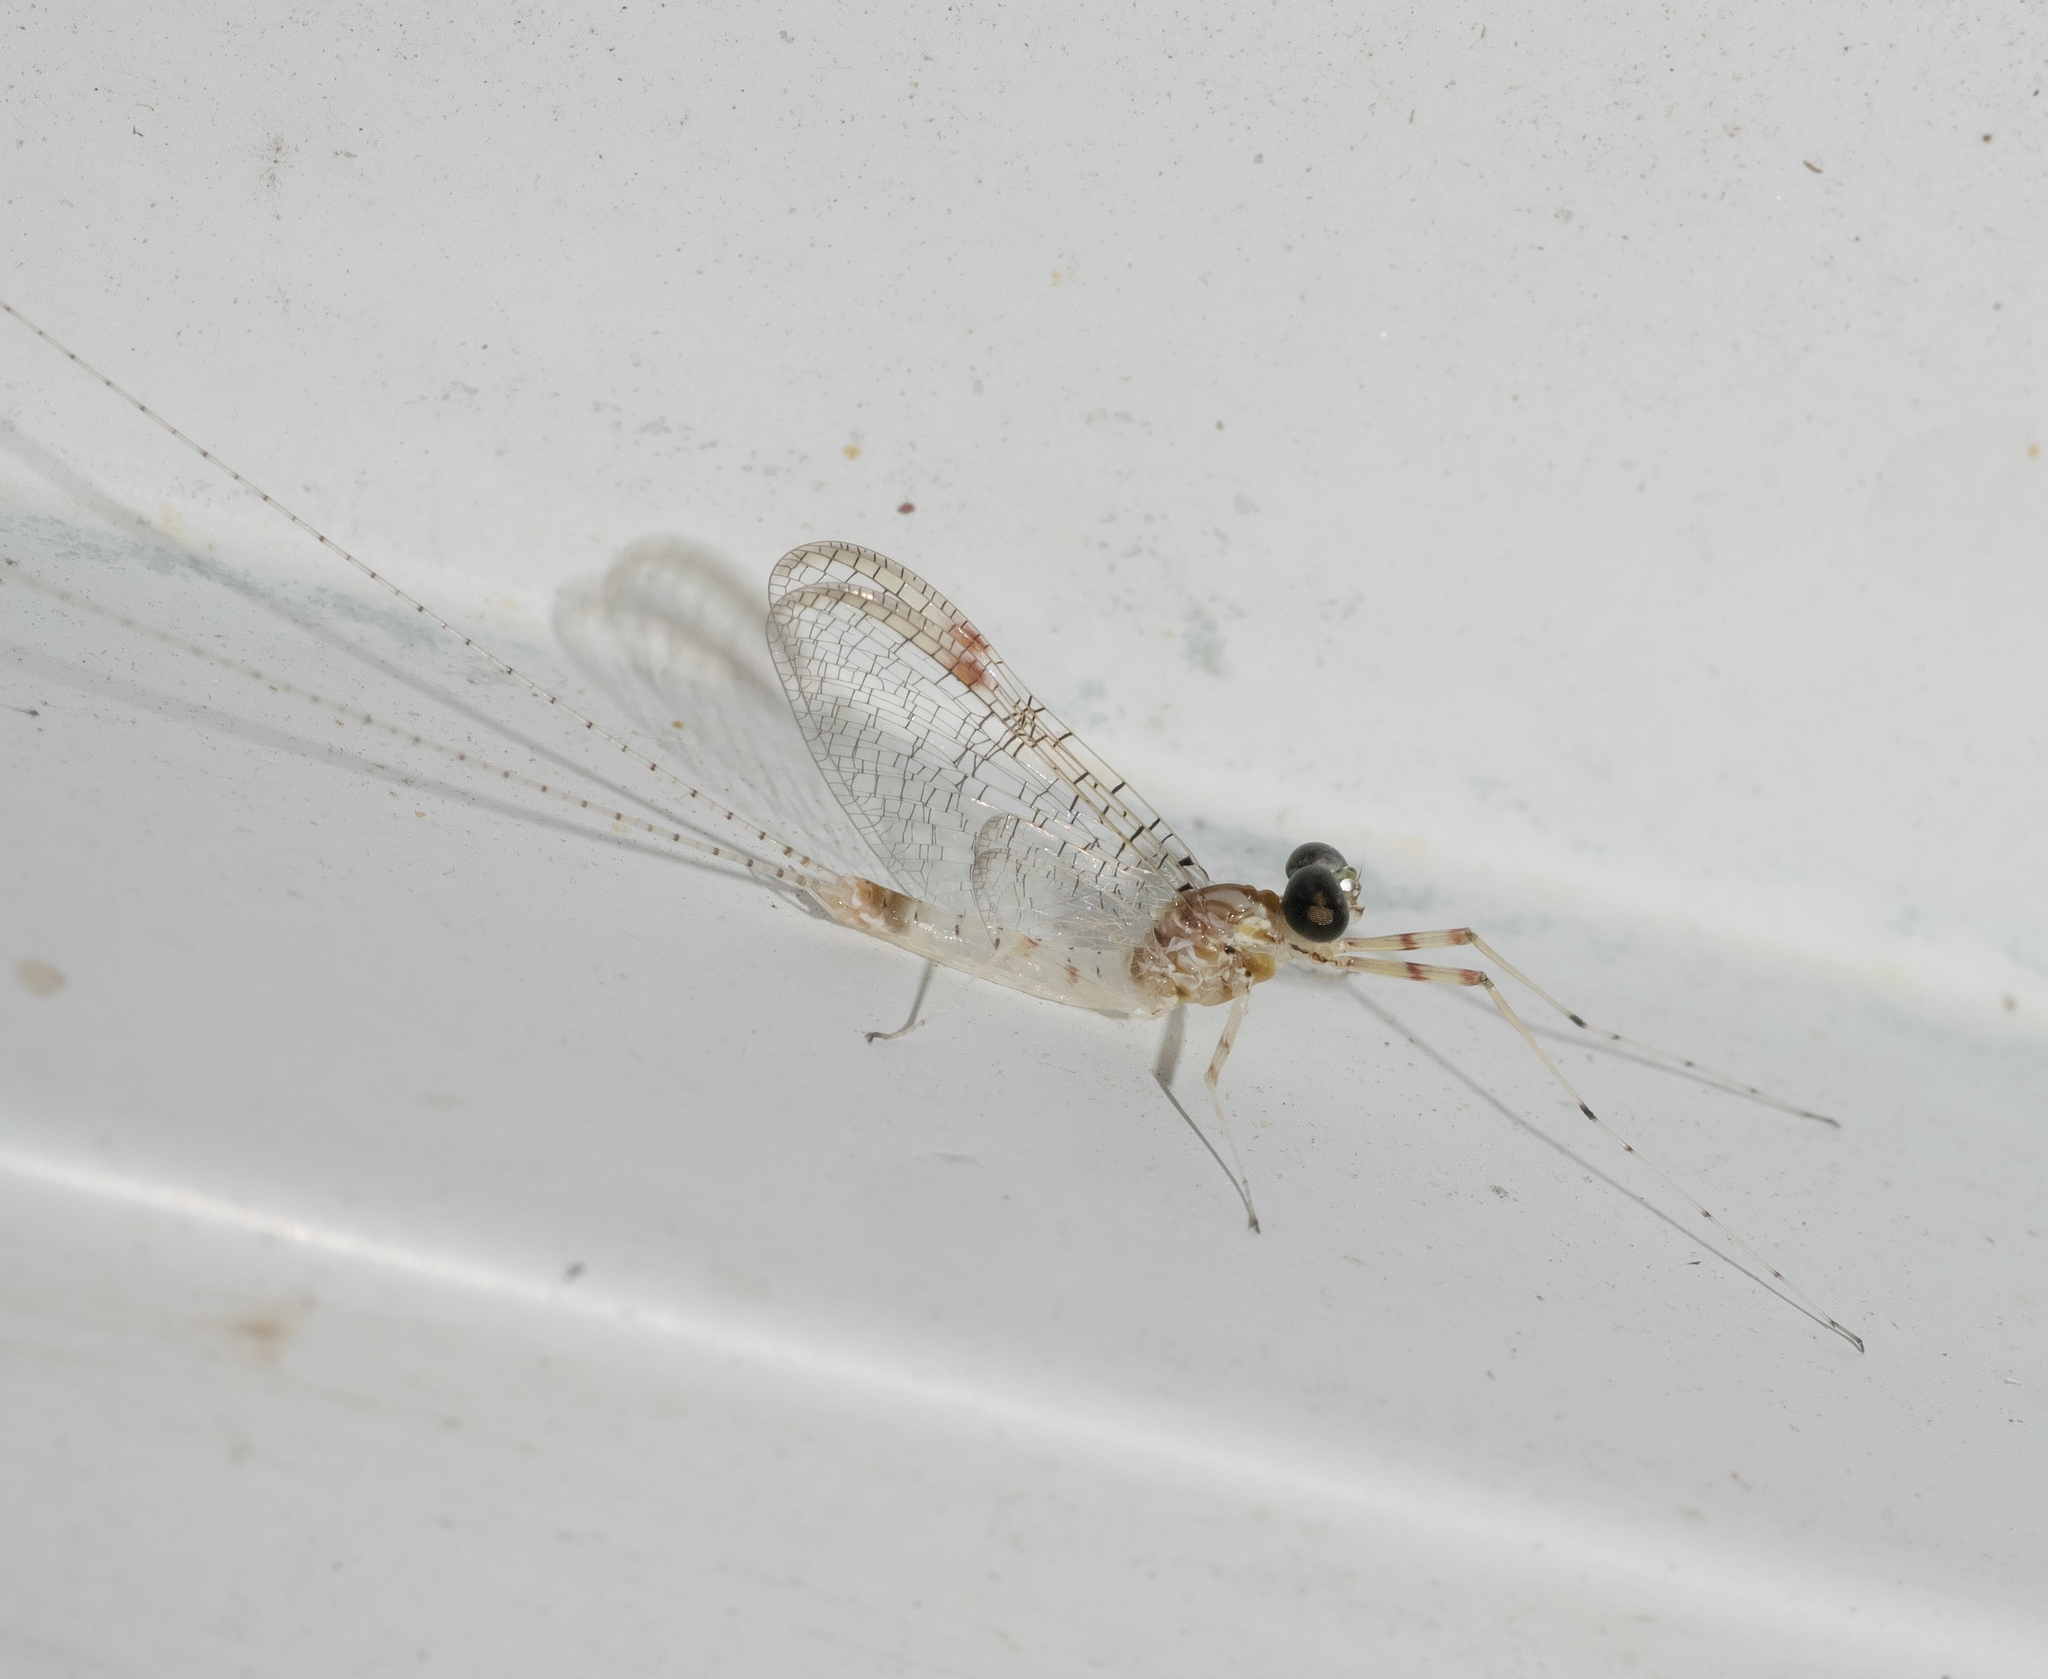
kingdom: Animalia
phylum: Arthropoda
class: Insecta
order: Ephemeroptera
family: Heptageniidae
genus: Stenonema
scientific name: Stenonema femoratum
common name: Dark cahill
